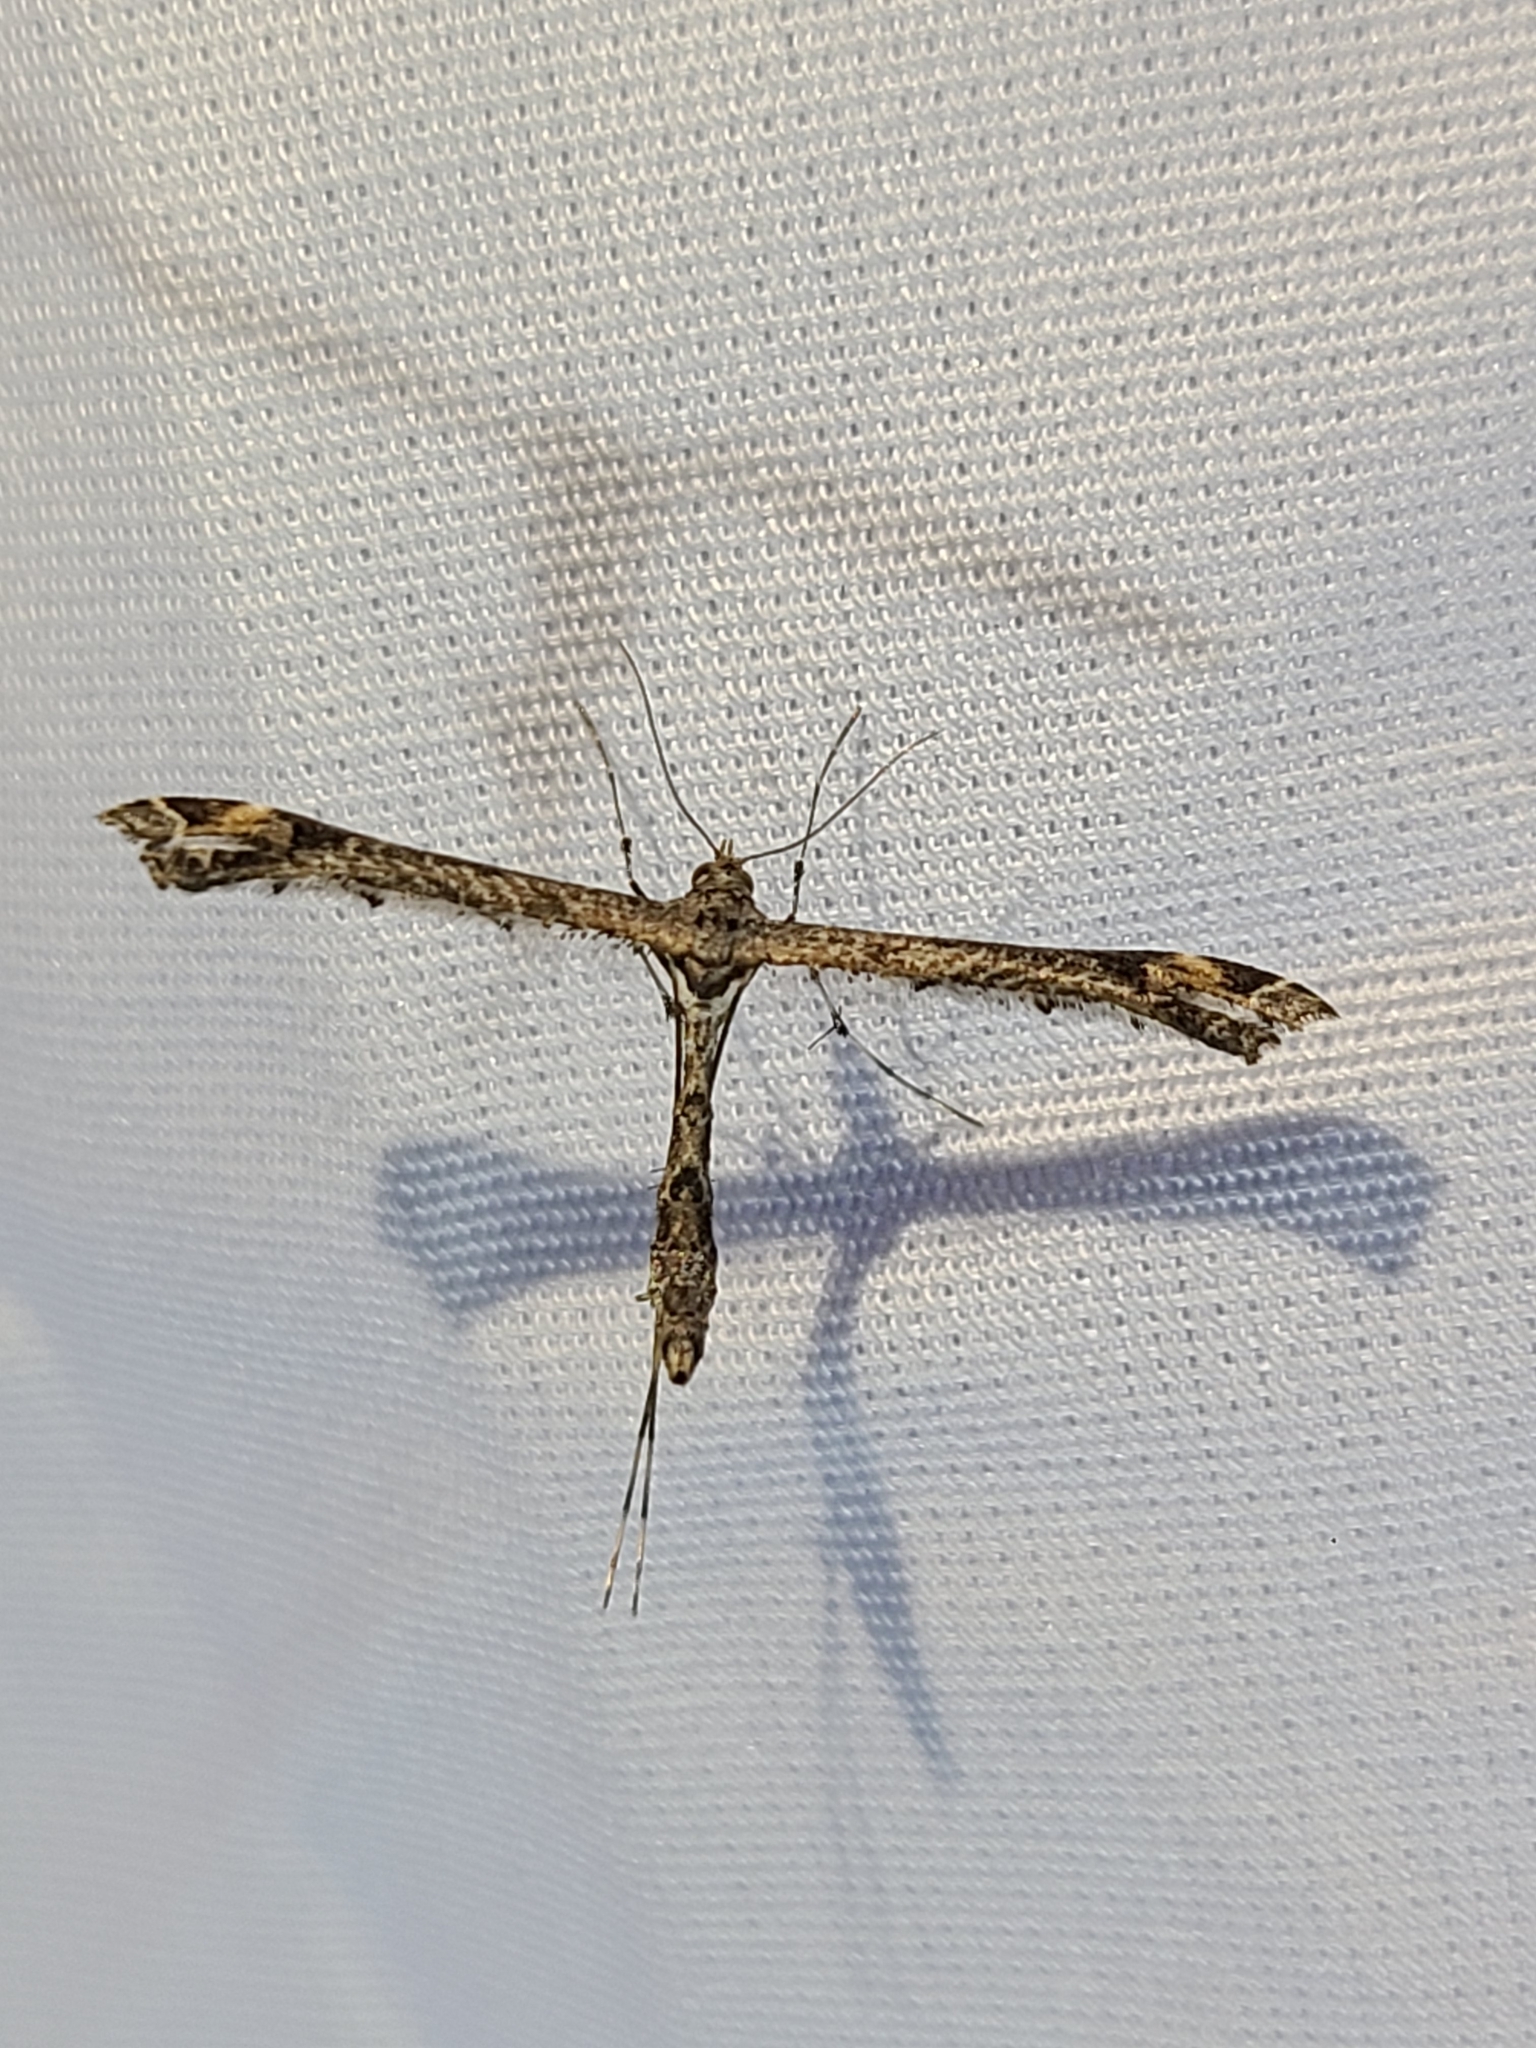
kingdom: Animalia
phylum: Arthropoda
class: Insecta
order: Lepidoptera
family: Pterophoridae
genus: Anstenoptilia
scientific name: Anstenoptilia marmarodactyla
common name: Moth
